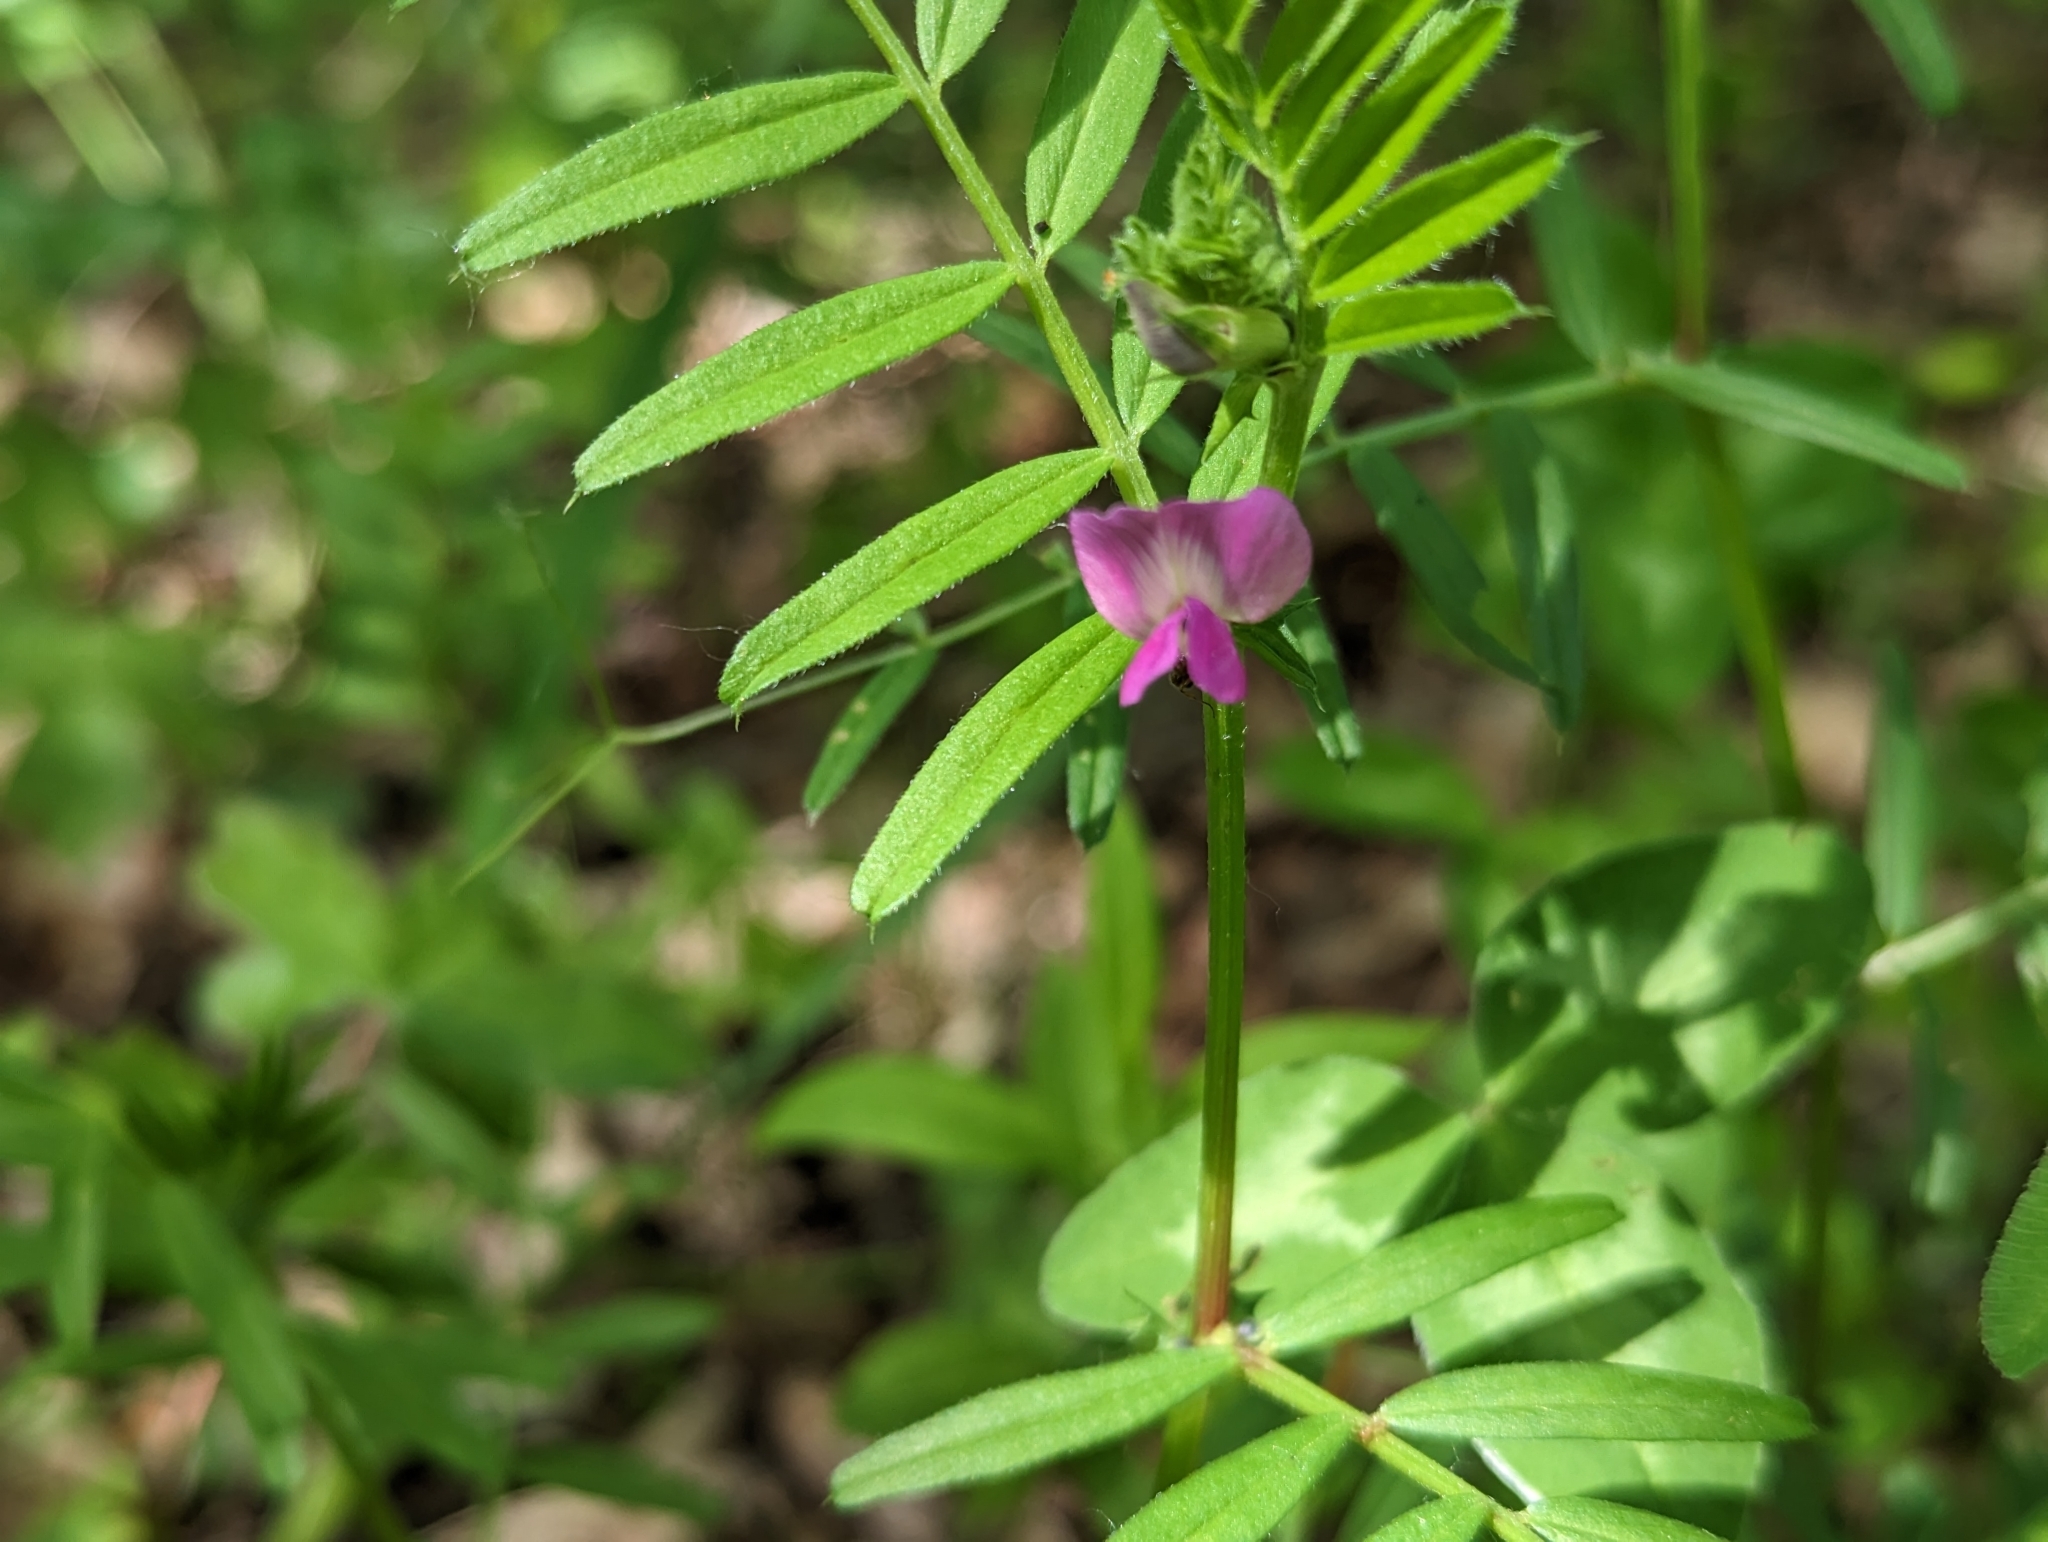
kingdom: Plantae
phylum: Tracheophyta
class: Magnoliopsida
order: Fabales
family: Fabaceae
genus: Vicia
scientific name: Vicia sativa
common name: Garden vetch
